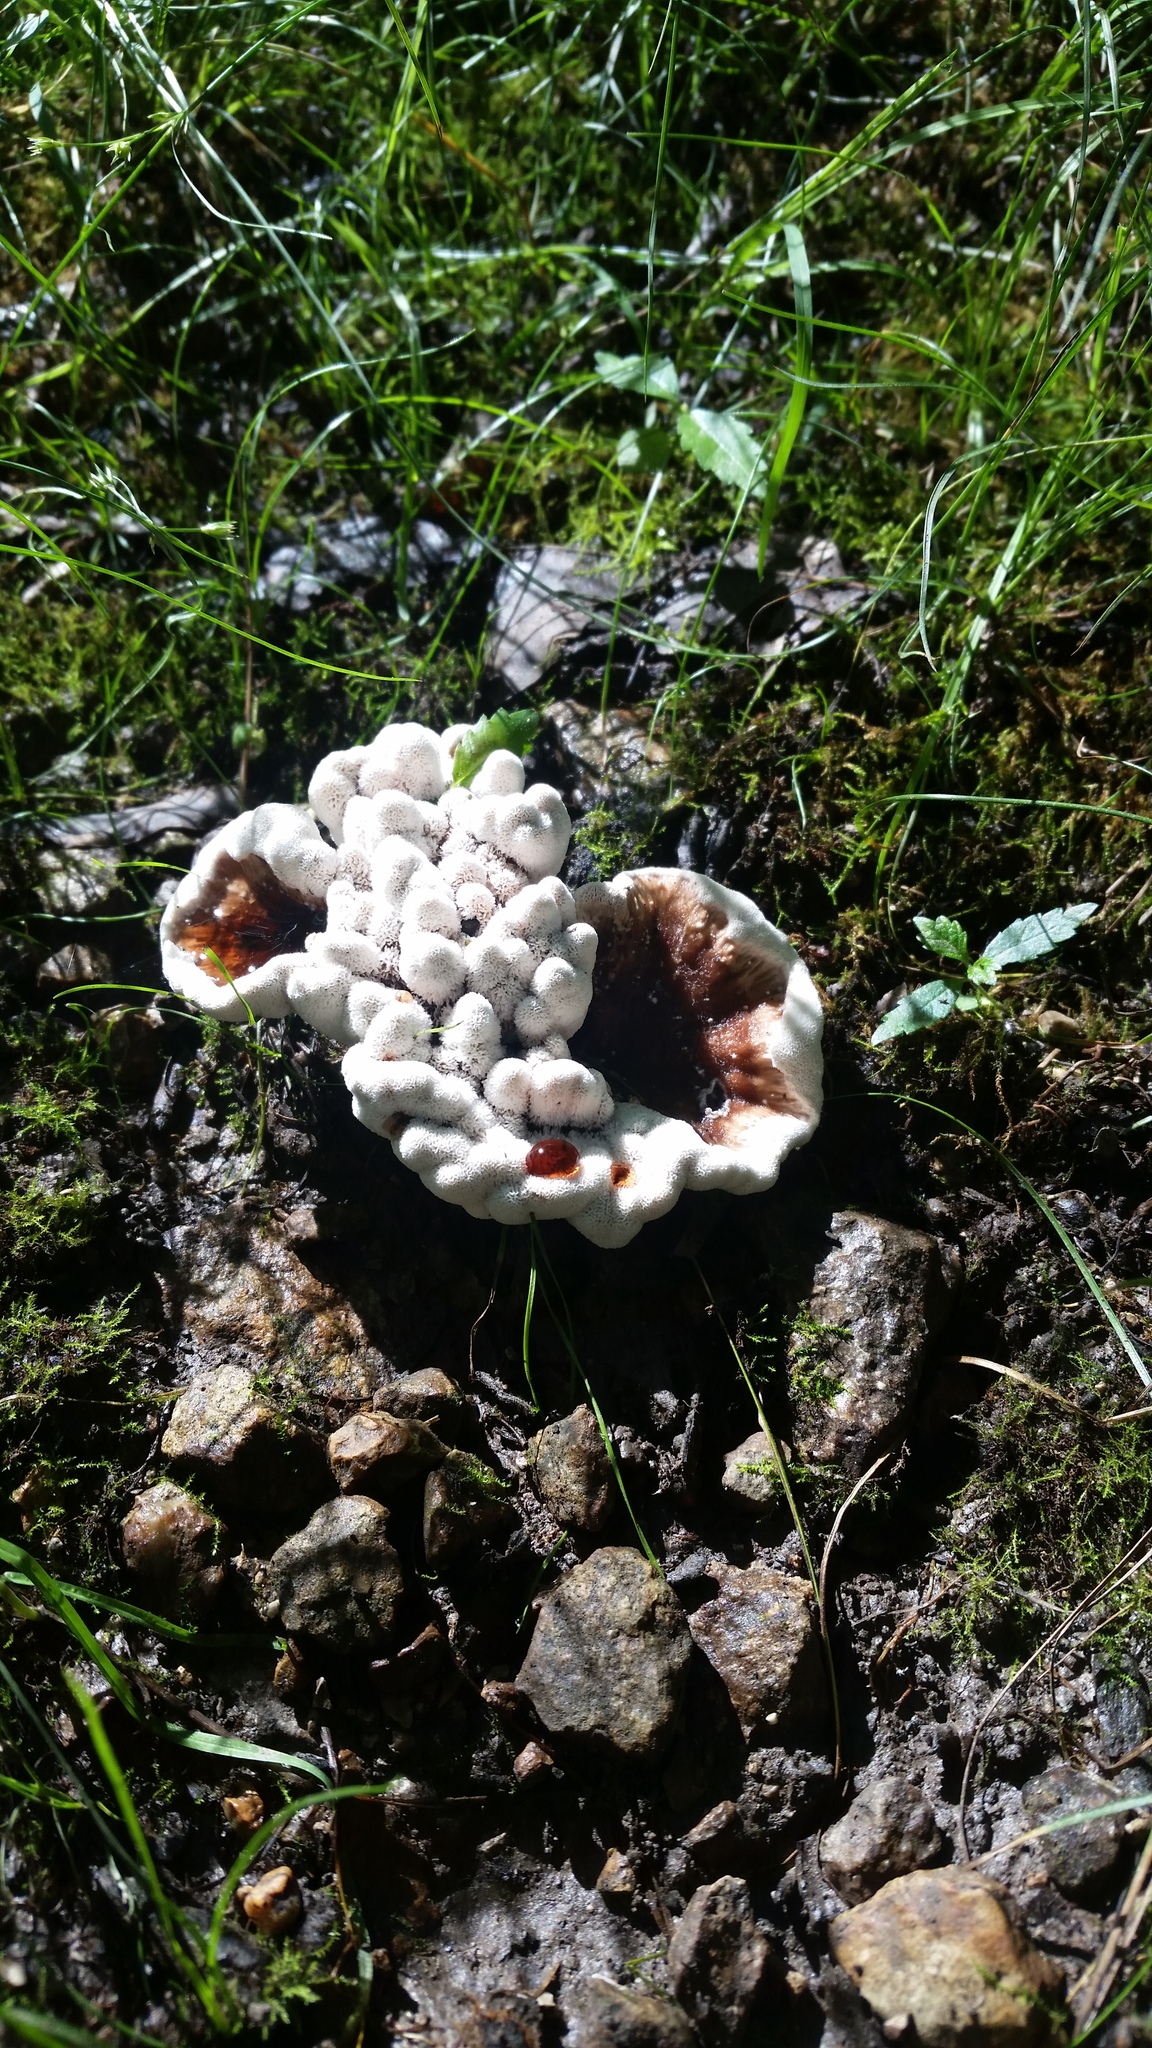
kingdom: Fungi
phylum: Basidiomycota
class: Agaricomycetes
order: Polyporales
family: Podoscyphaceae
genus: Abortiporus
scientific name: Abortiporus biennis
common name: Blushing rosette
